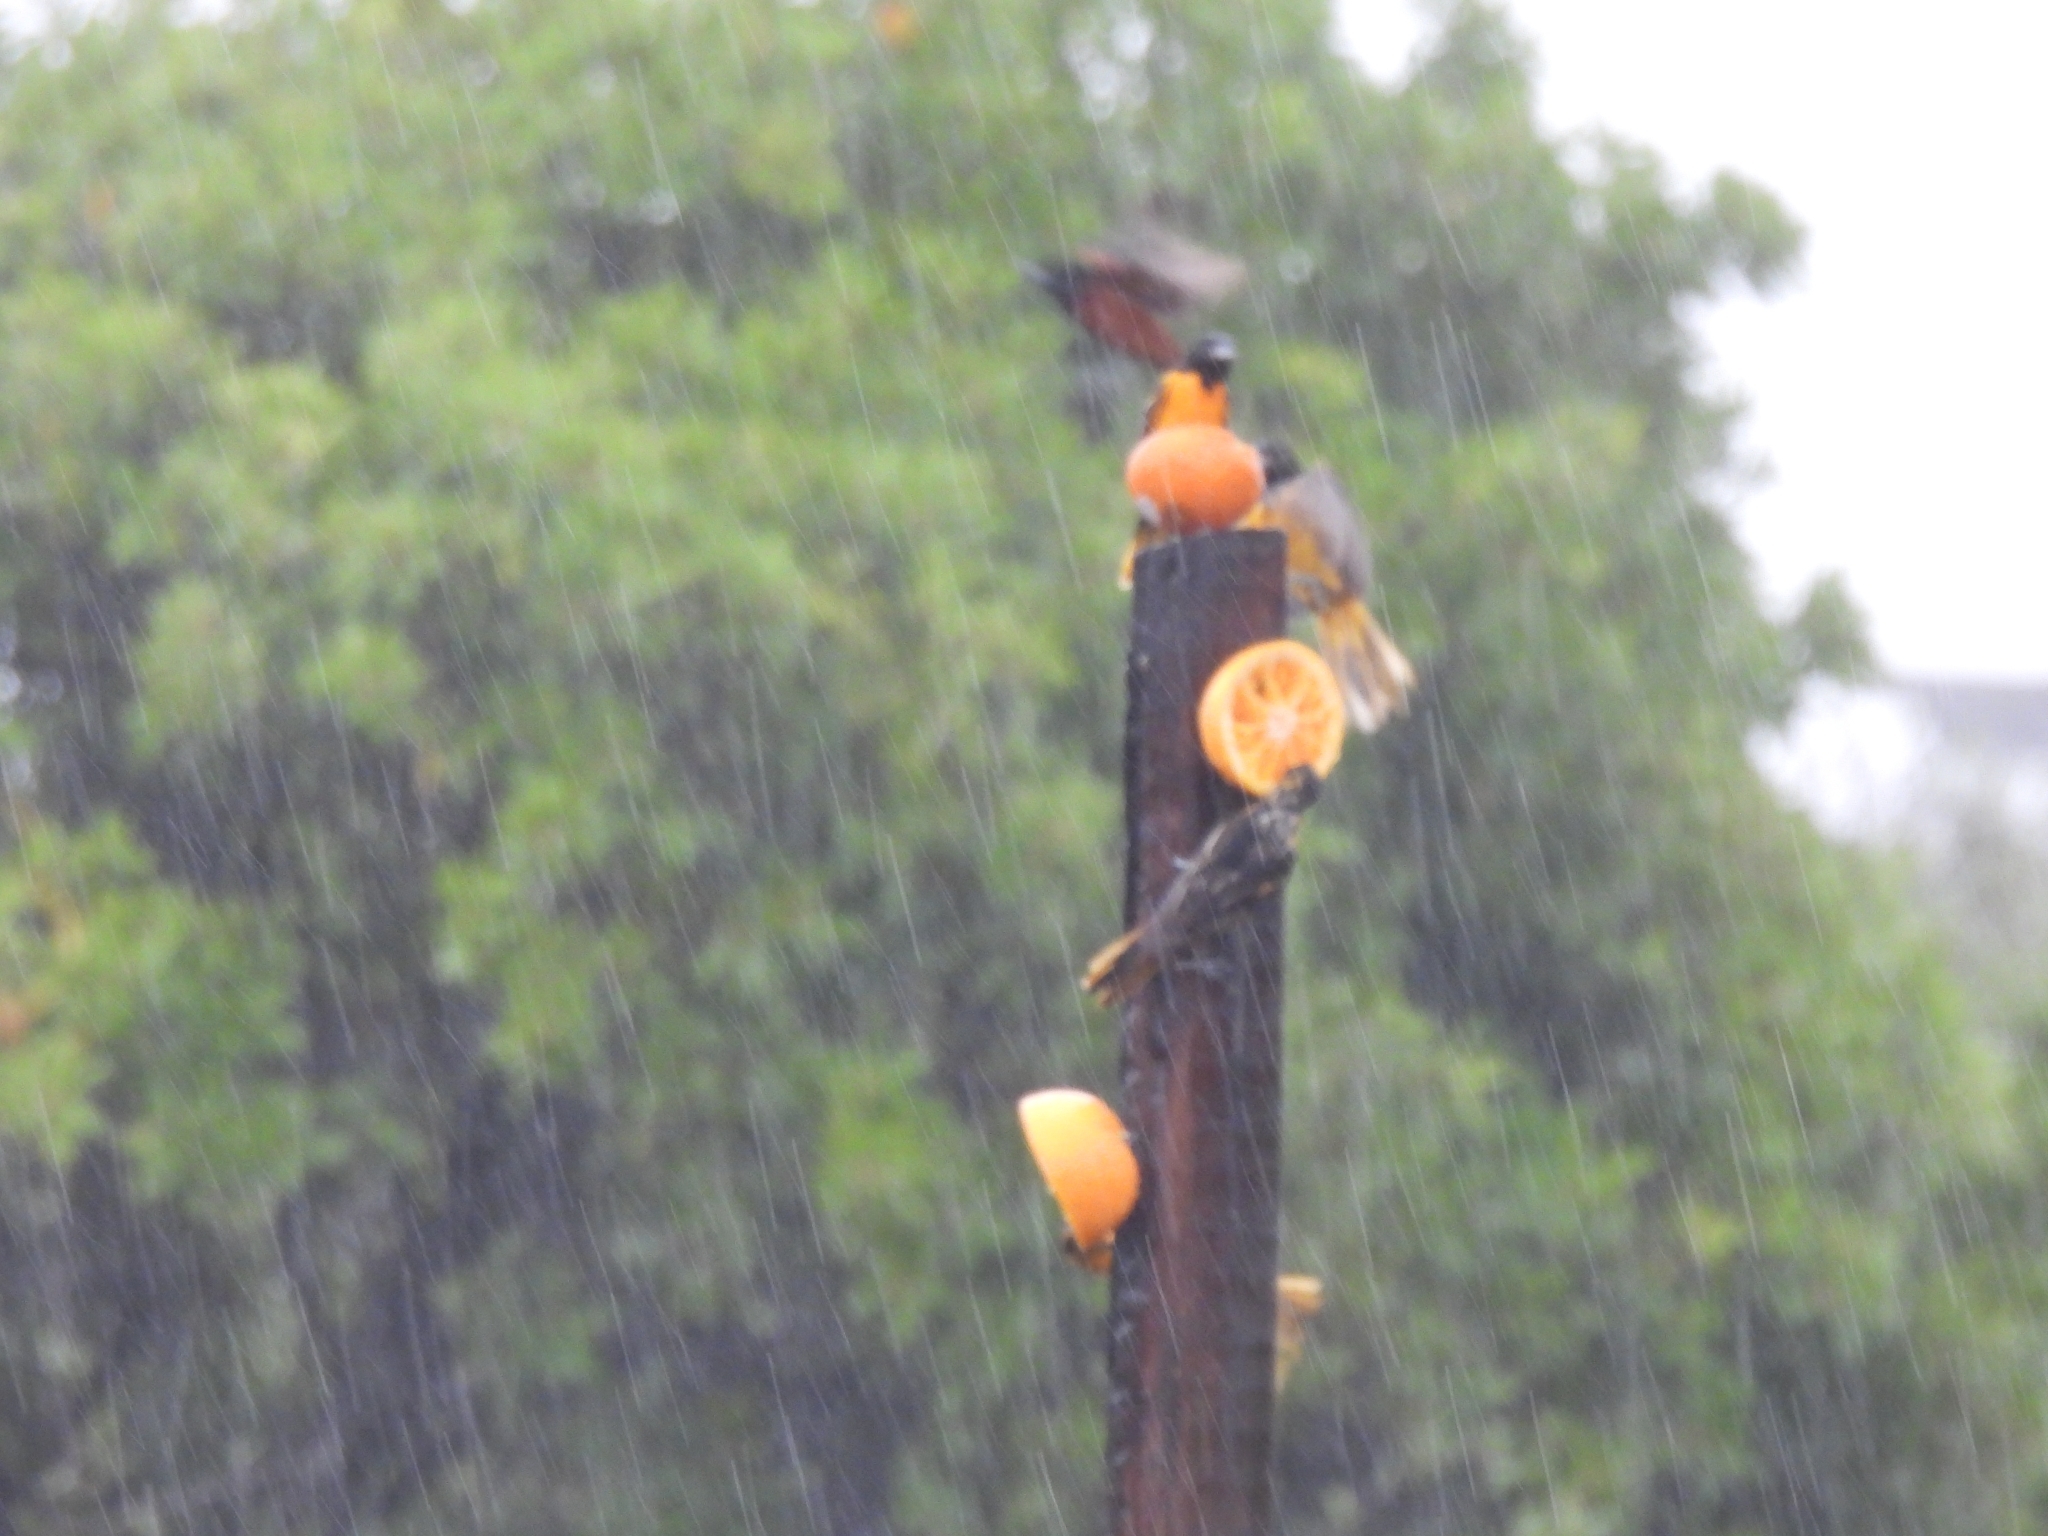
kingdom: Animalia
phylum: Chordata
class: Aves
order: Passeriformes
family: Icteridae
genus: Icterus
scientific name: Icterus galbula
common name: Baltimore oriole
